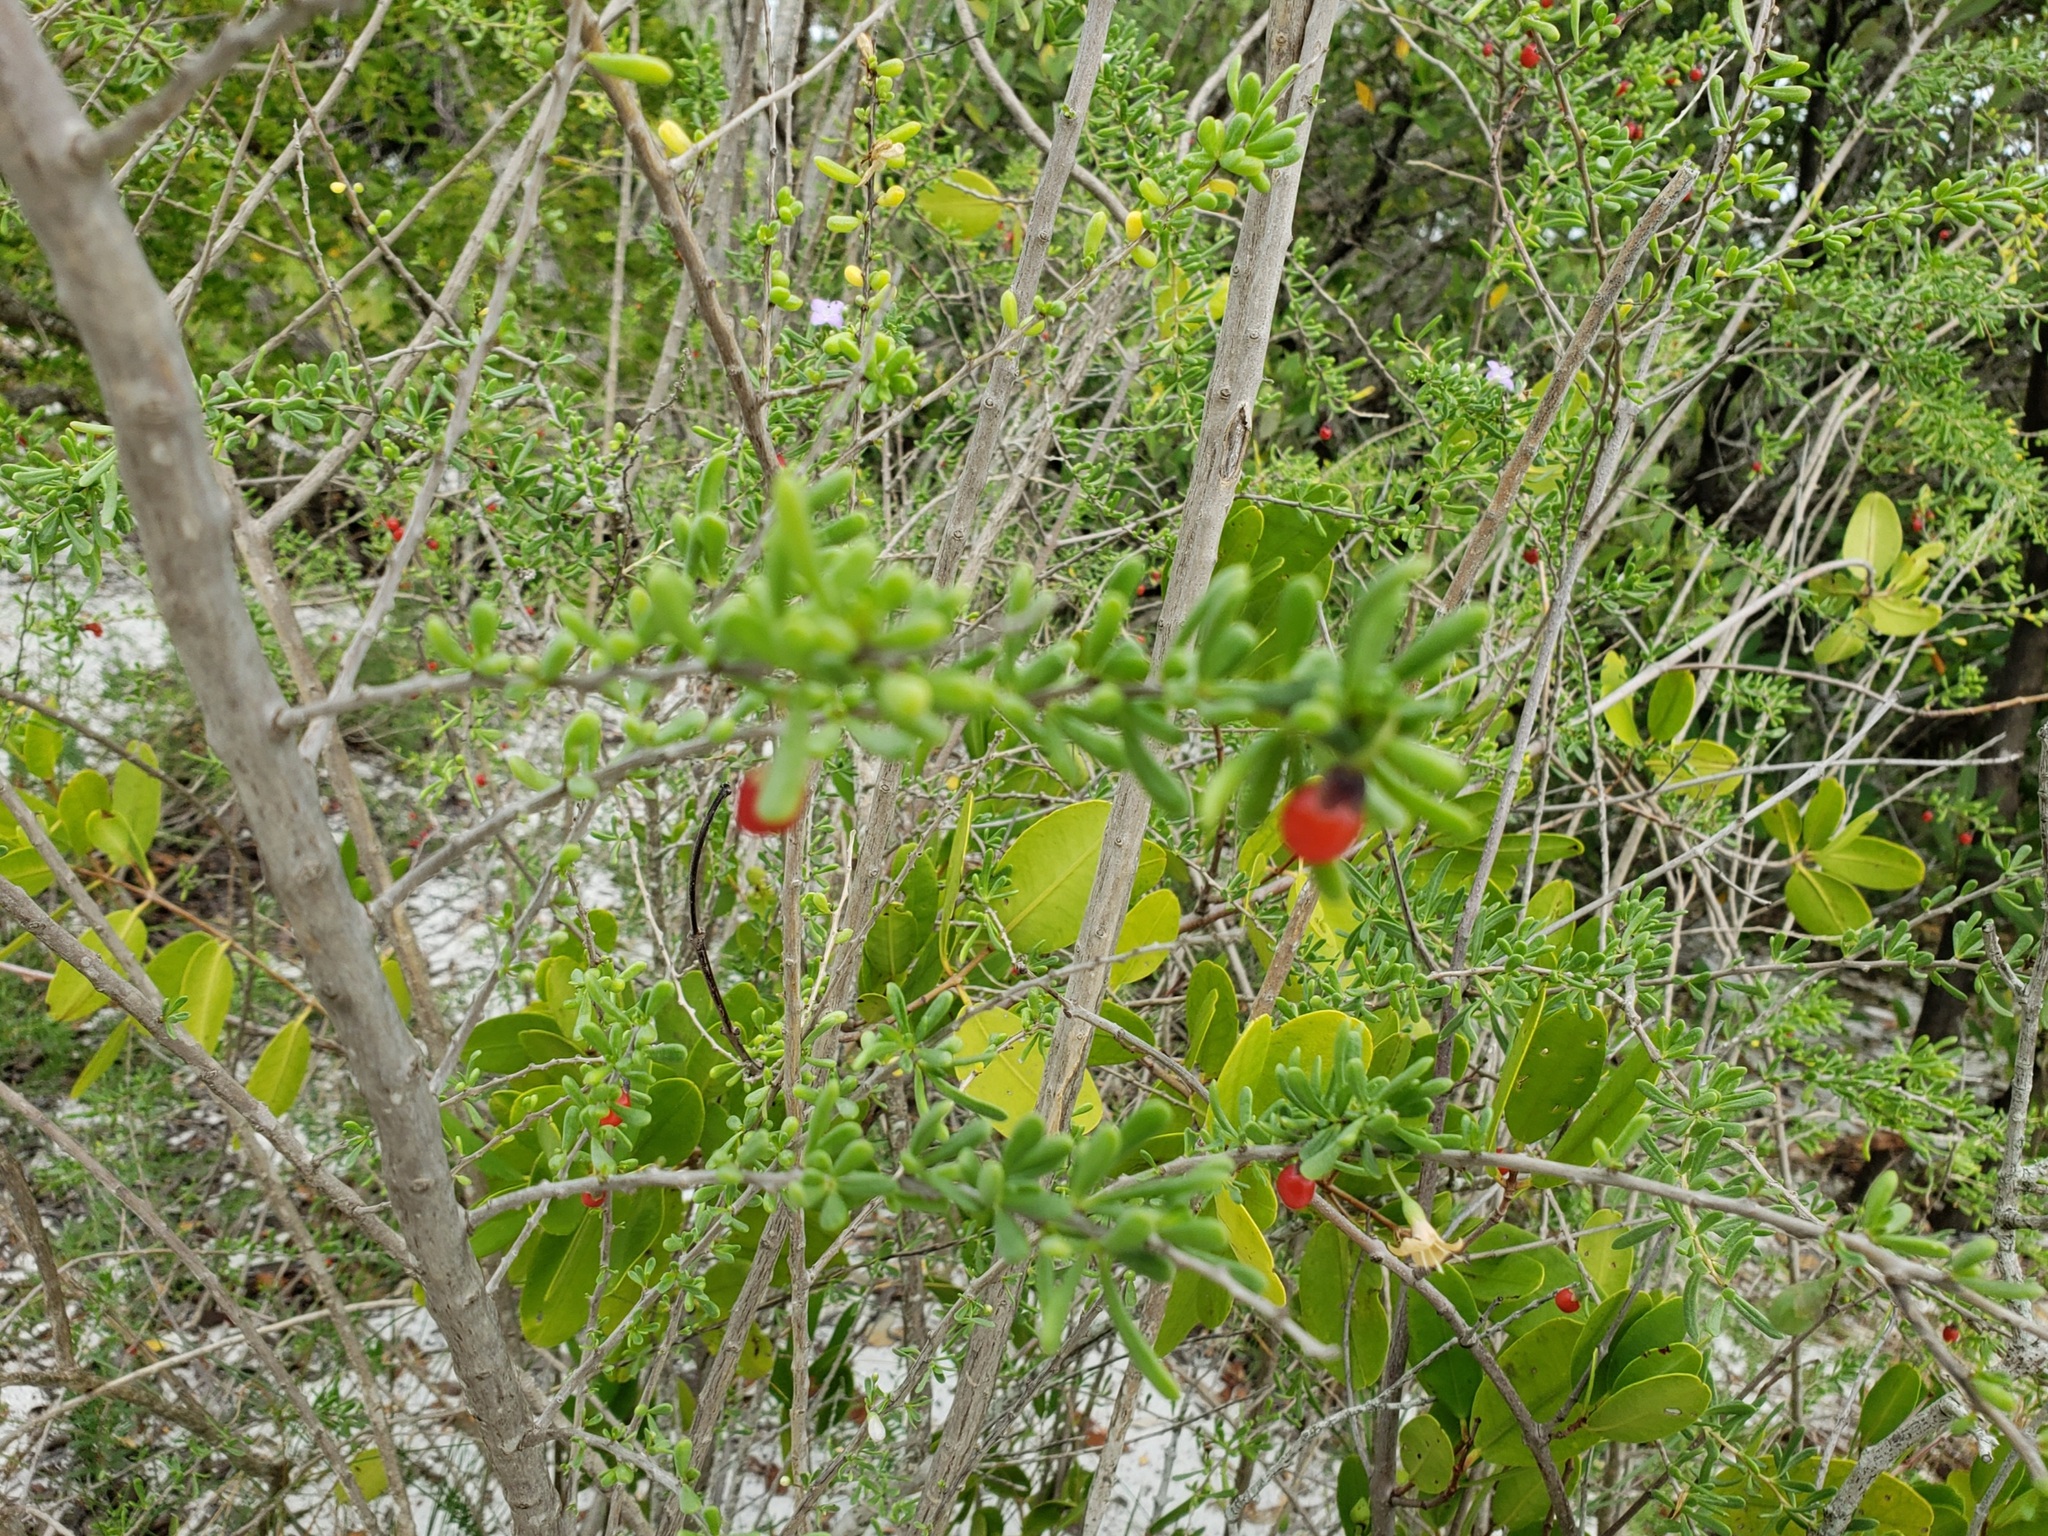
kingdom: Plantae
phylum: Tracheophyta
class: Magnoliopsida
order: Solanales
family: Solanaceae
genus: Lycium
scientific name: Lycium carolinianum
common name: Christmasberry
